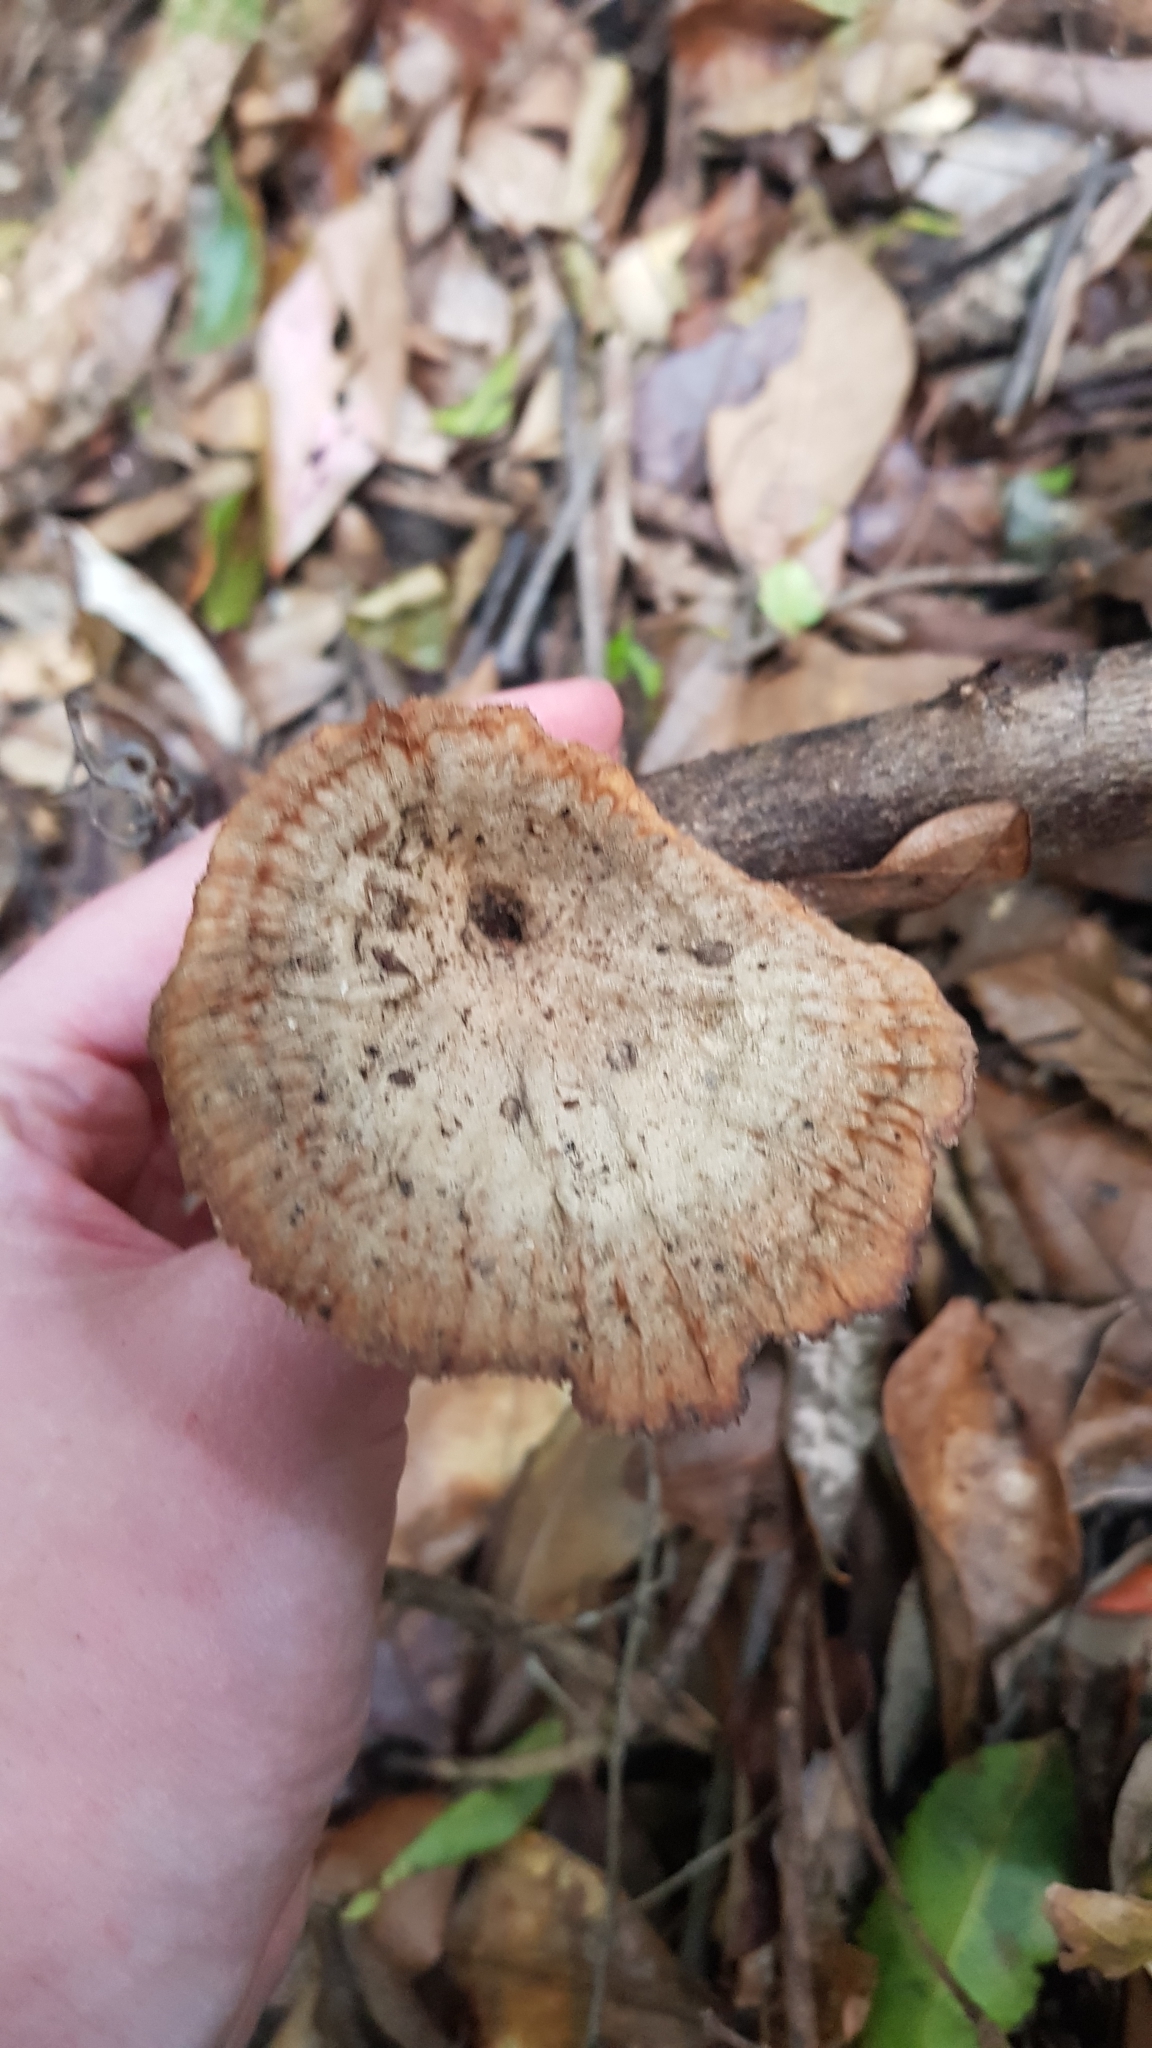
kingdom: Fungi
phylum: Basidiomycota
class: Agaricomycetes
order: Polyporales
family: Panaceae
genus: Cymatoderma
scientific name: Cymatoderma elegans
